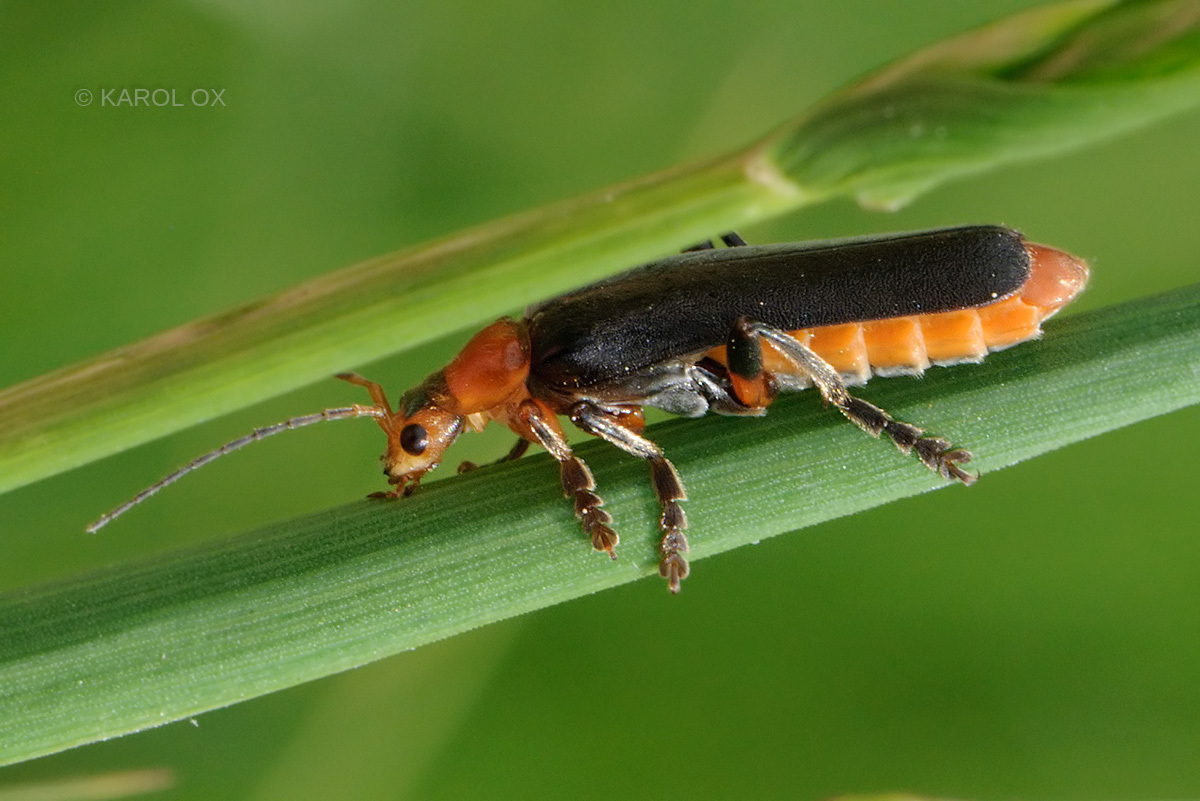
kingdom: Animalia
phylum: Arthropoda
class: Insecta
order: Coleoptera
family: Cantharidae
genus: Cantharis
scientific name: Cantharis livida
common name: Livid soldier beetle
